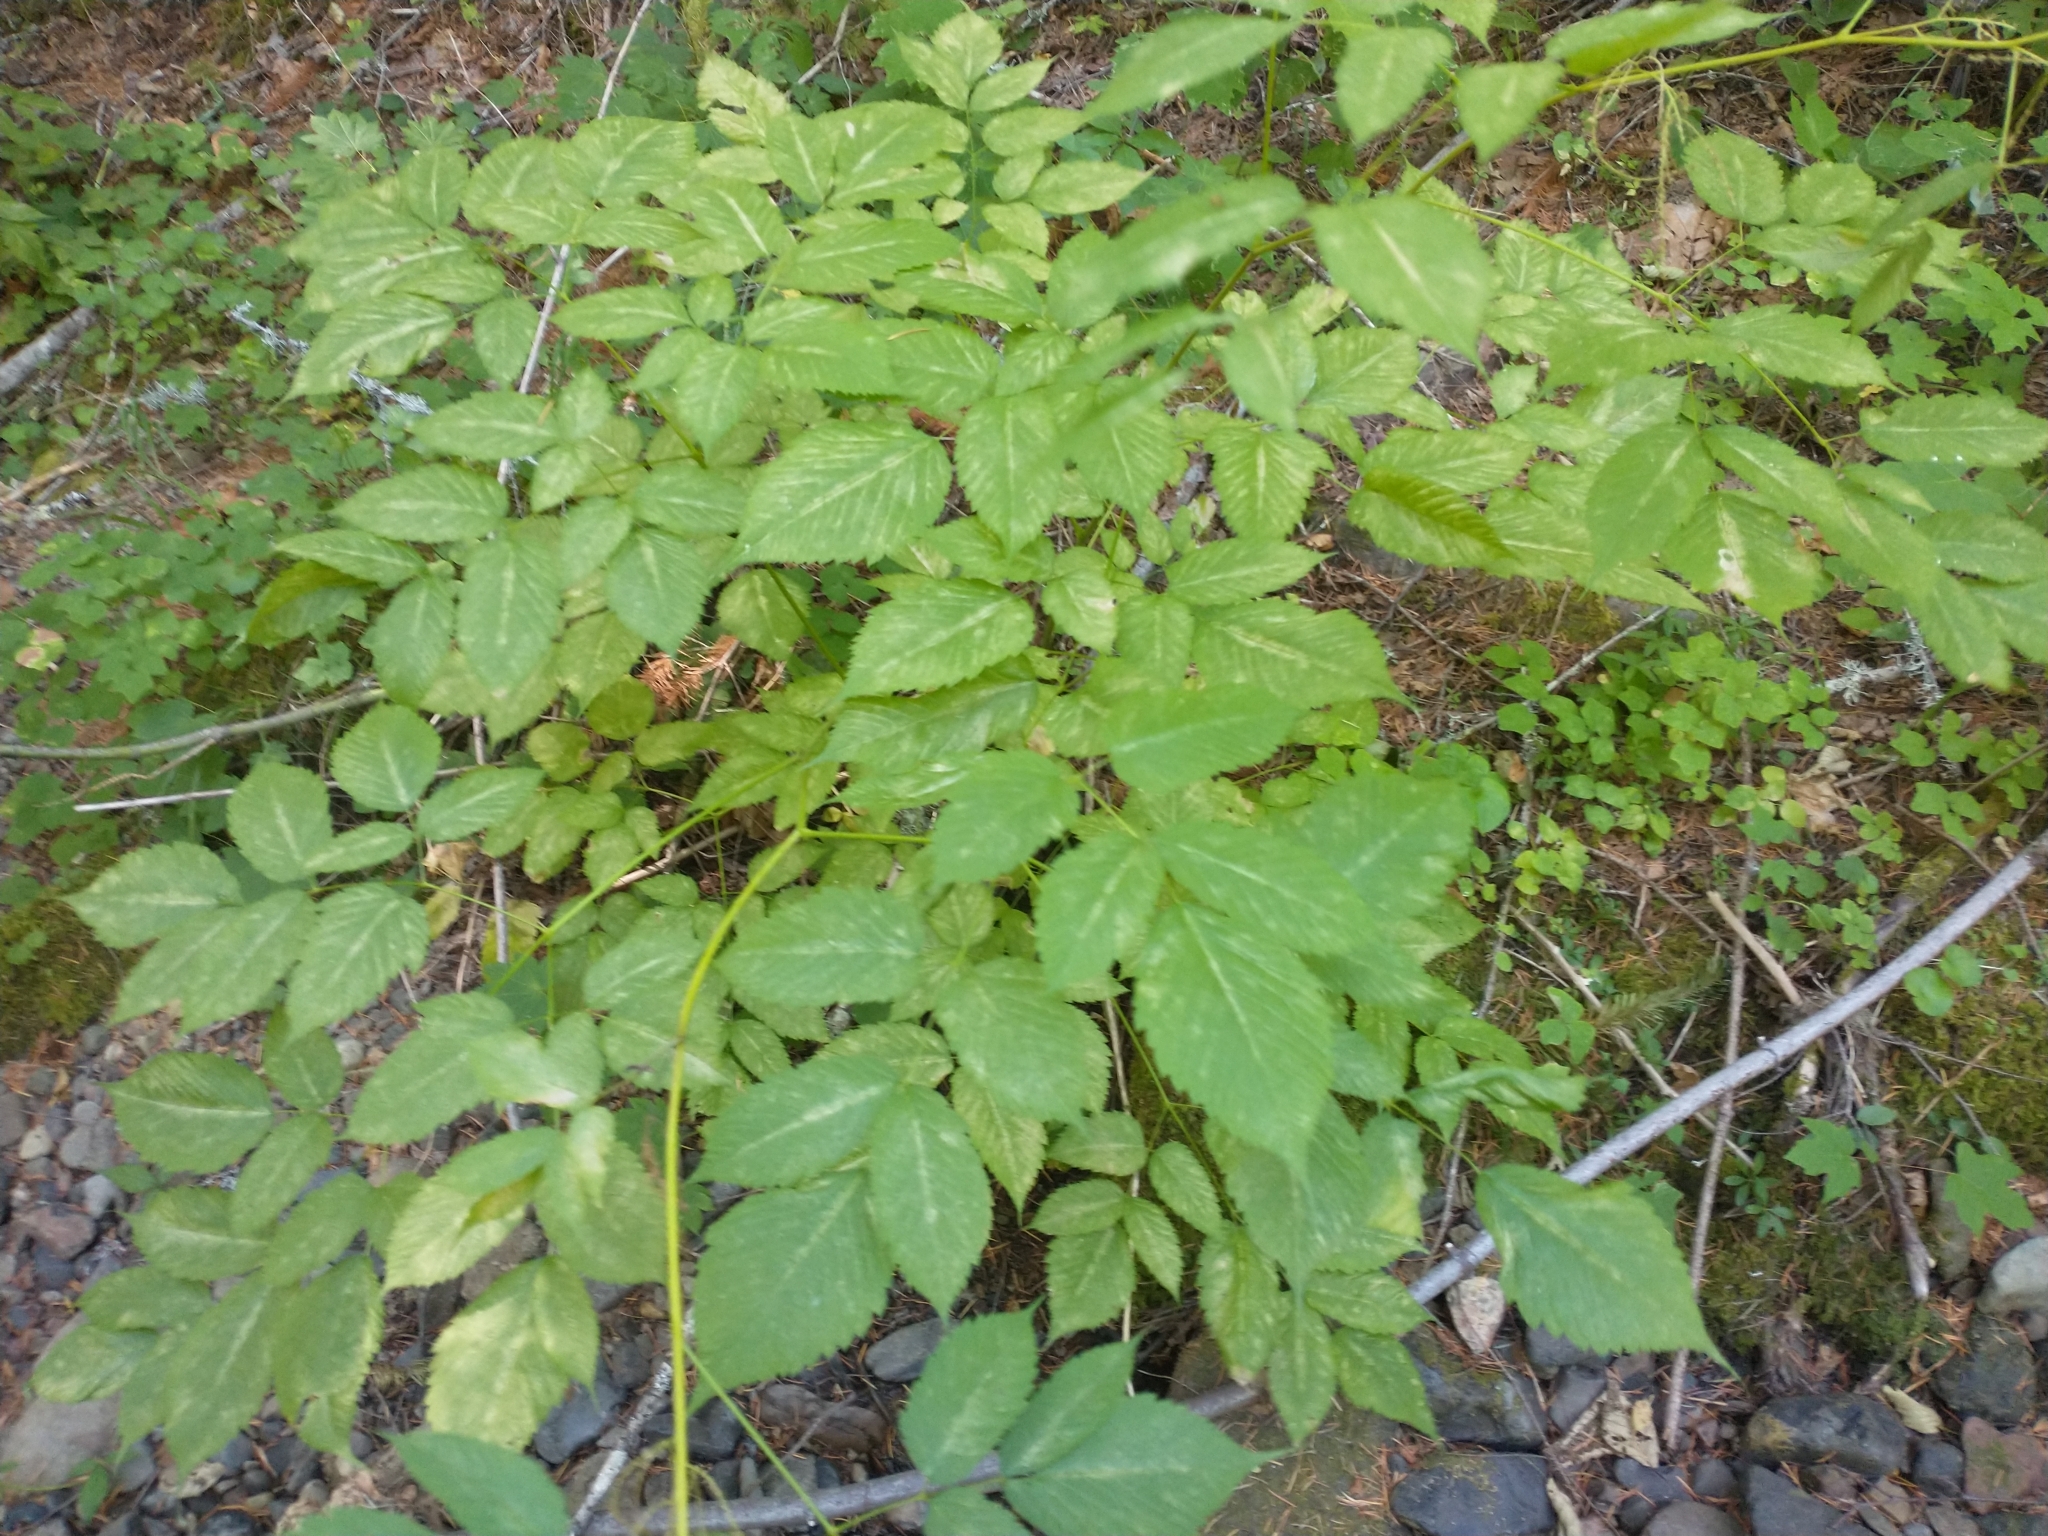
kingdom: Plantae
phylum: Tracheophyta
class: Magnoliopsida
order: Rosales
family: Rosaceae
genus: Aruncus
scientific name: Aruncus dioicus
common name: Buck's-beard
